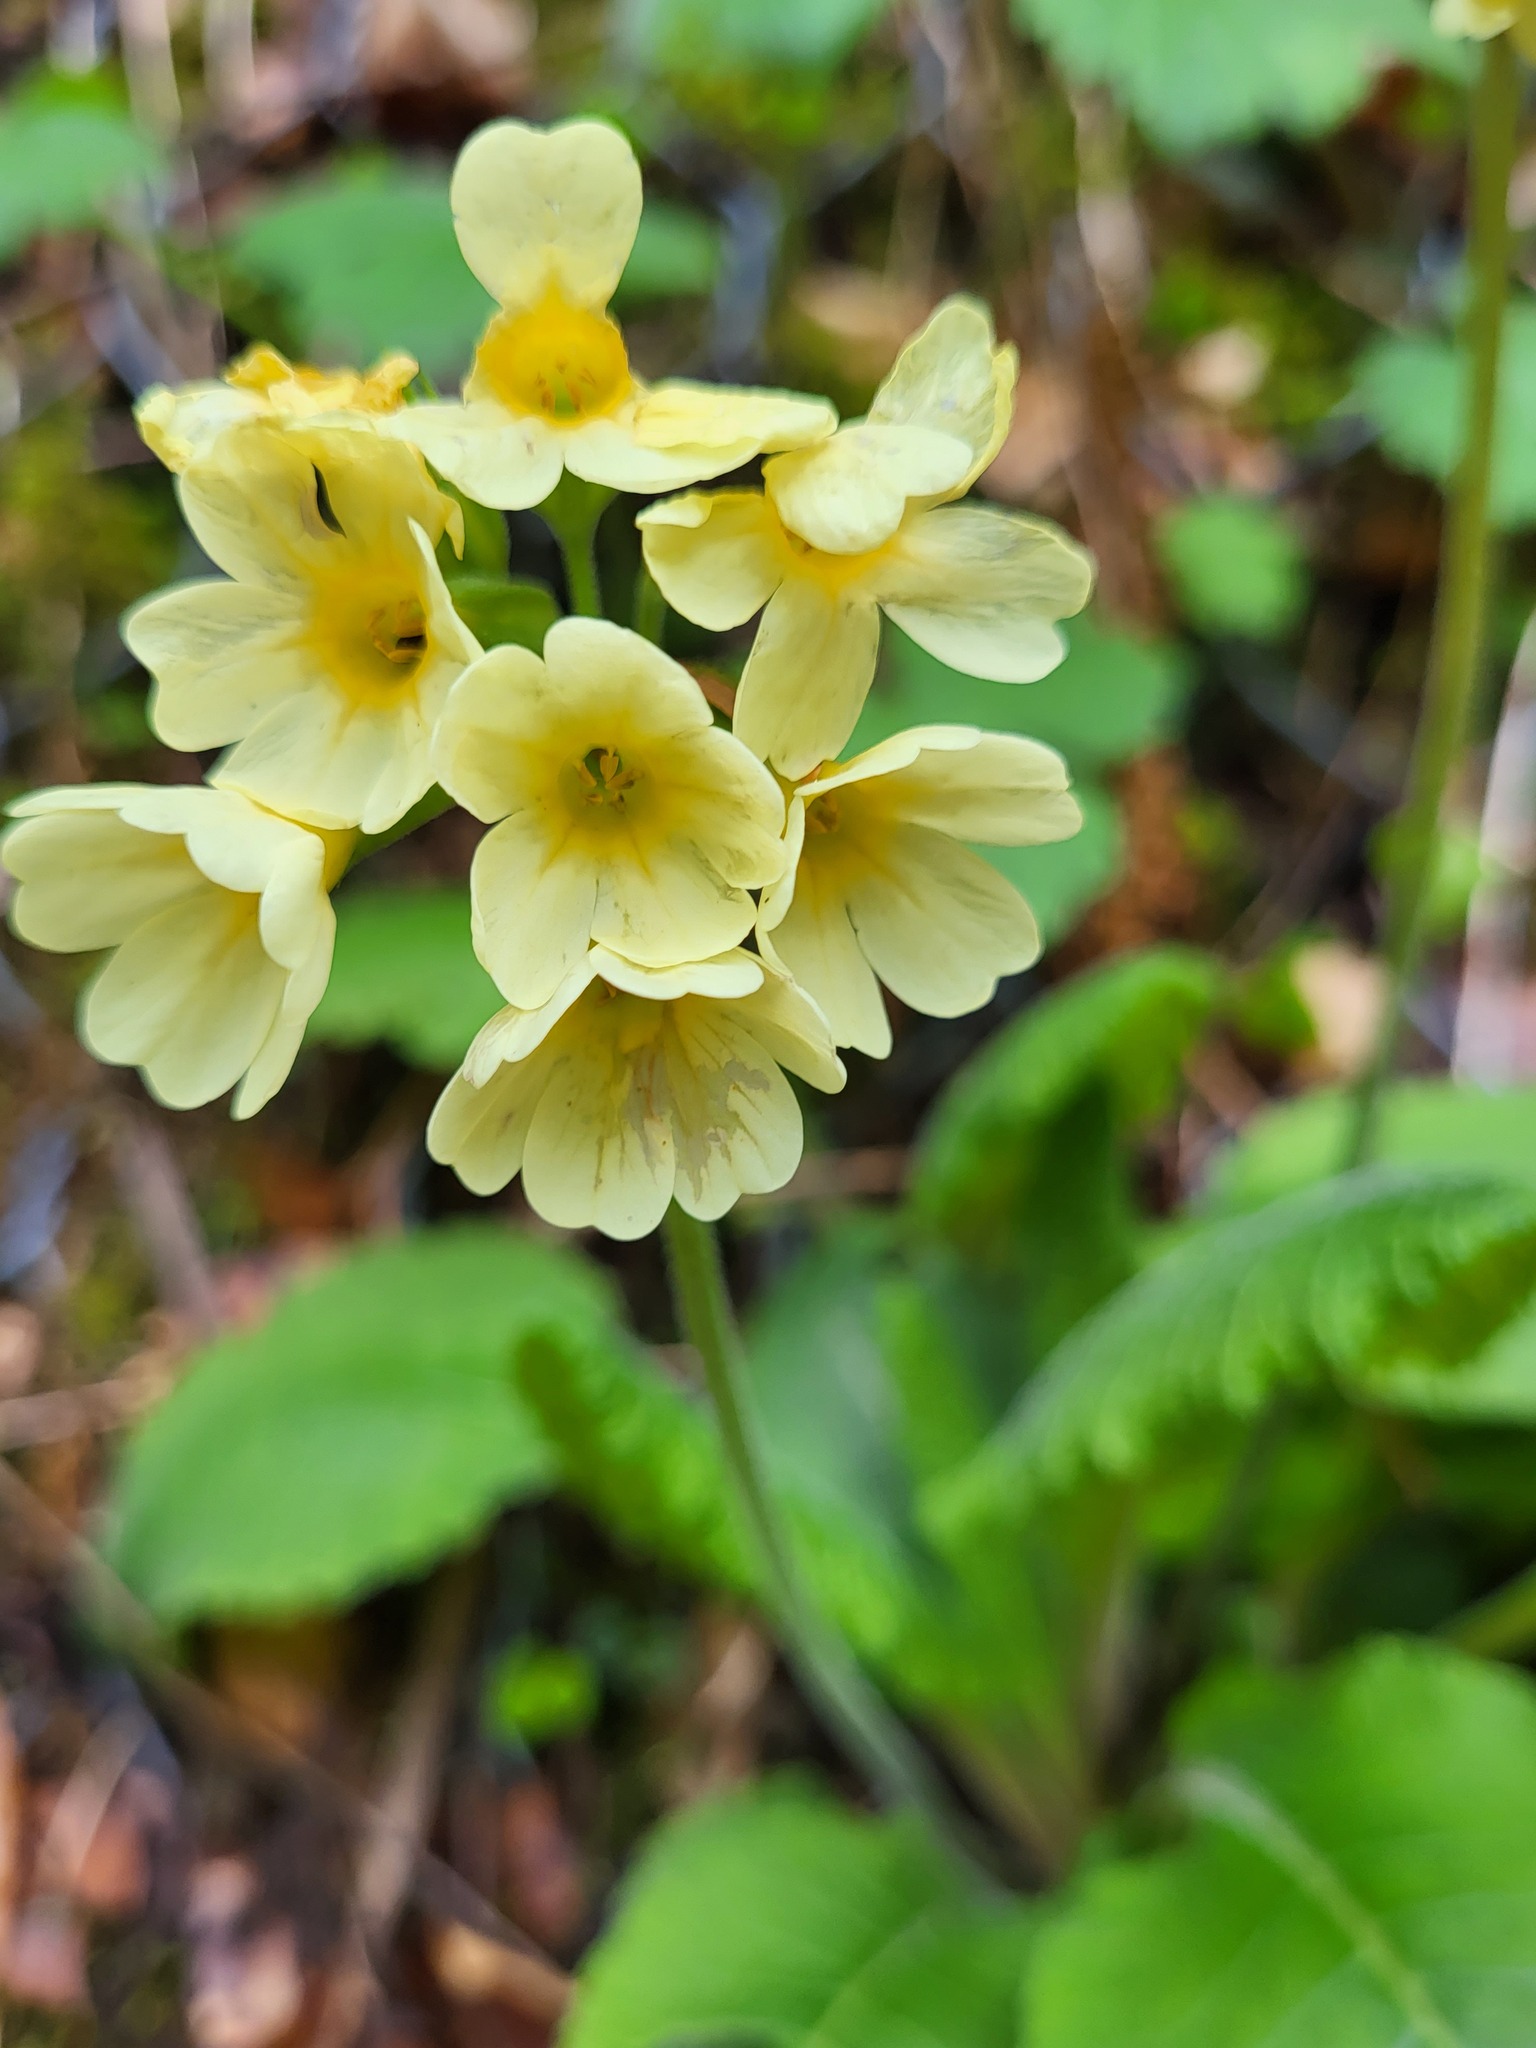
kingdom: Plantae
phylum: Tracheophyta
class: Magnoliopsida
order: Ericales
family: Primulaceae
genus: Primula
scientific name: Primula elatior
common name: Oxlip
